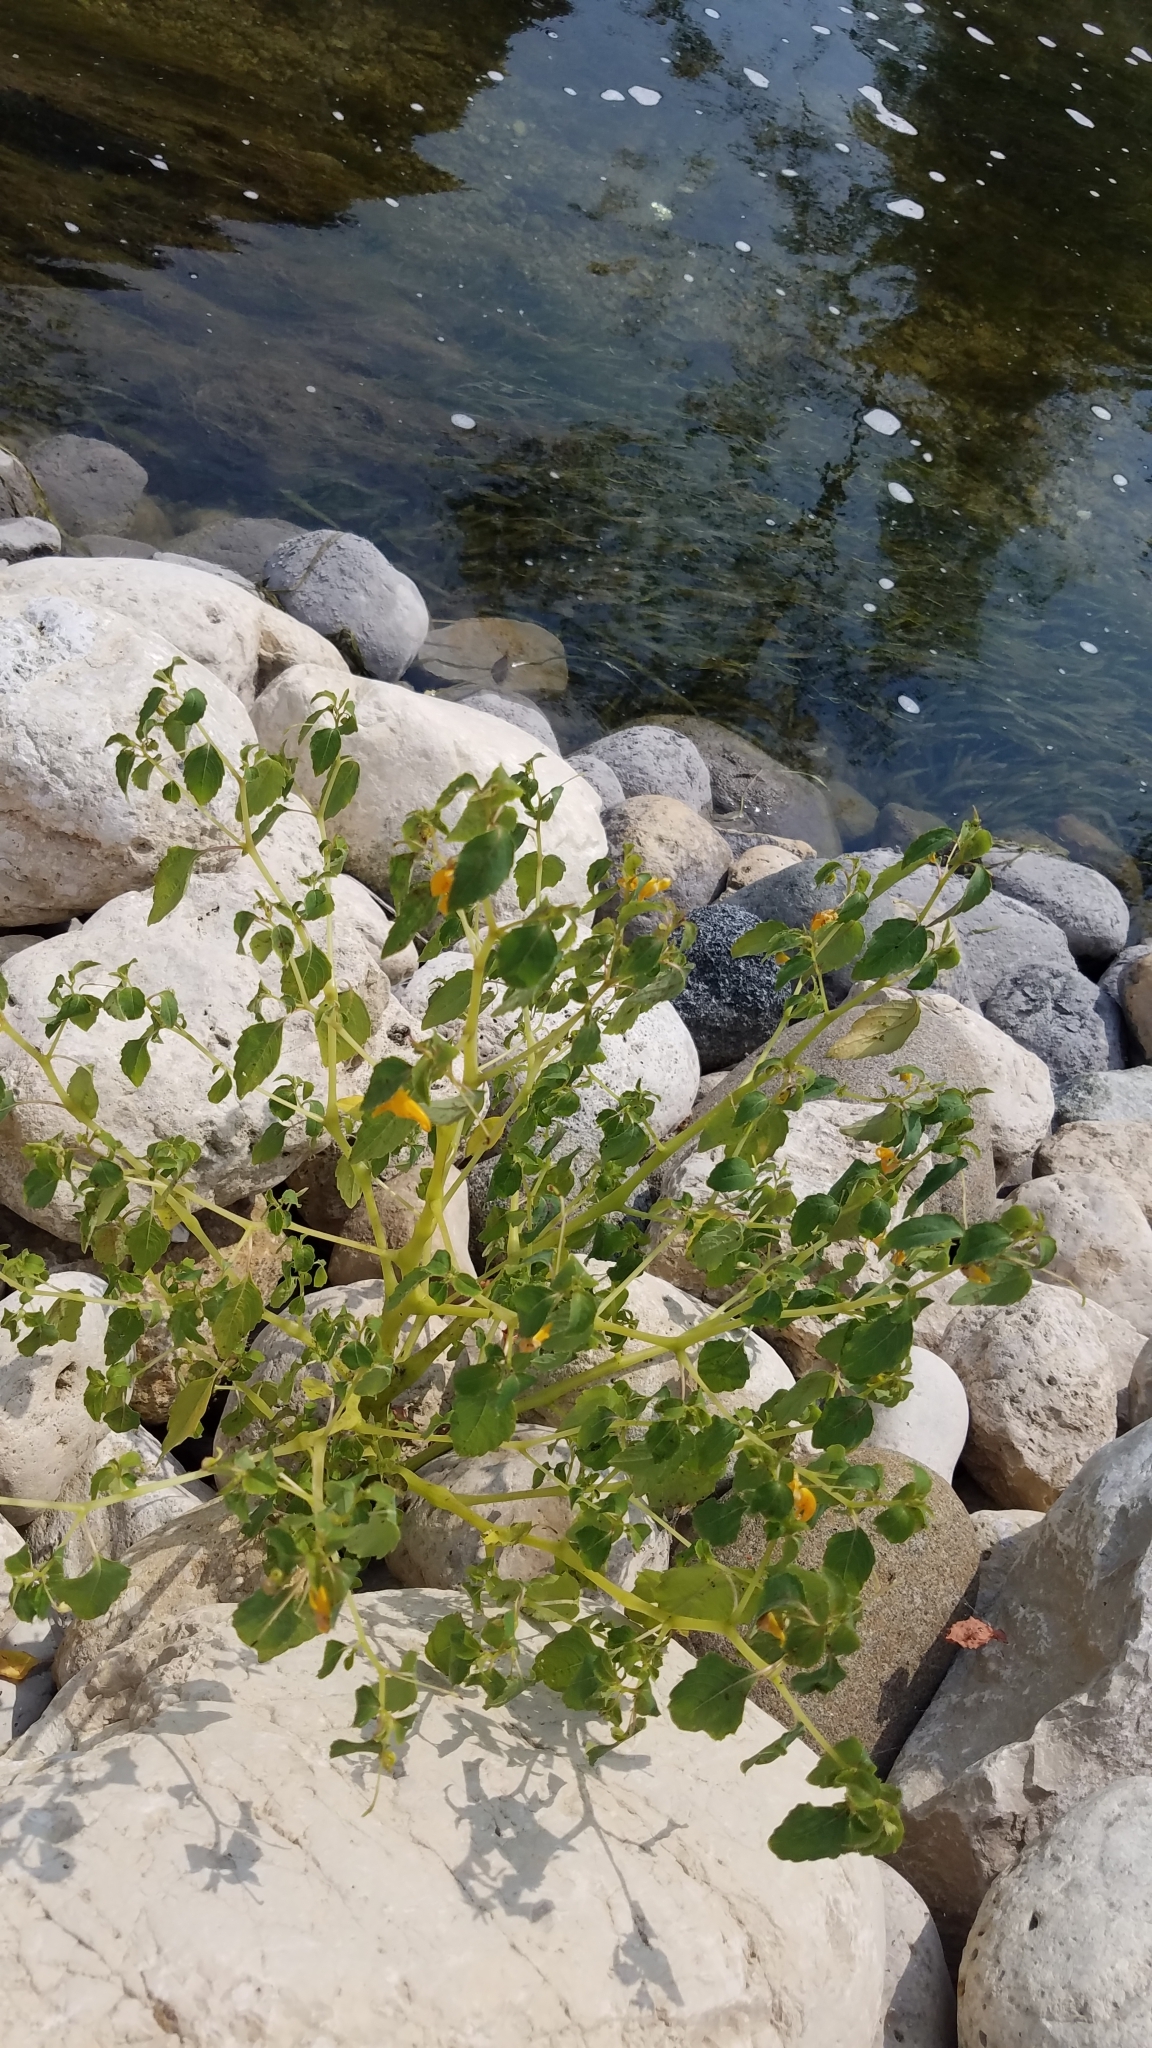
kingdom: Plantae
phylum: Tracheophyta
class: Magnoliopsida
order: Ericales
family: Balsaminaceae
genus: Impatiens
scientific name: Impatiens capensis
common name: Orange balsam
